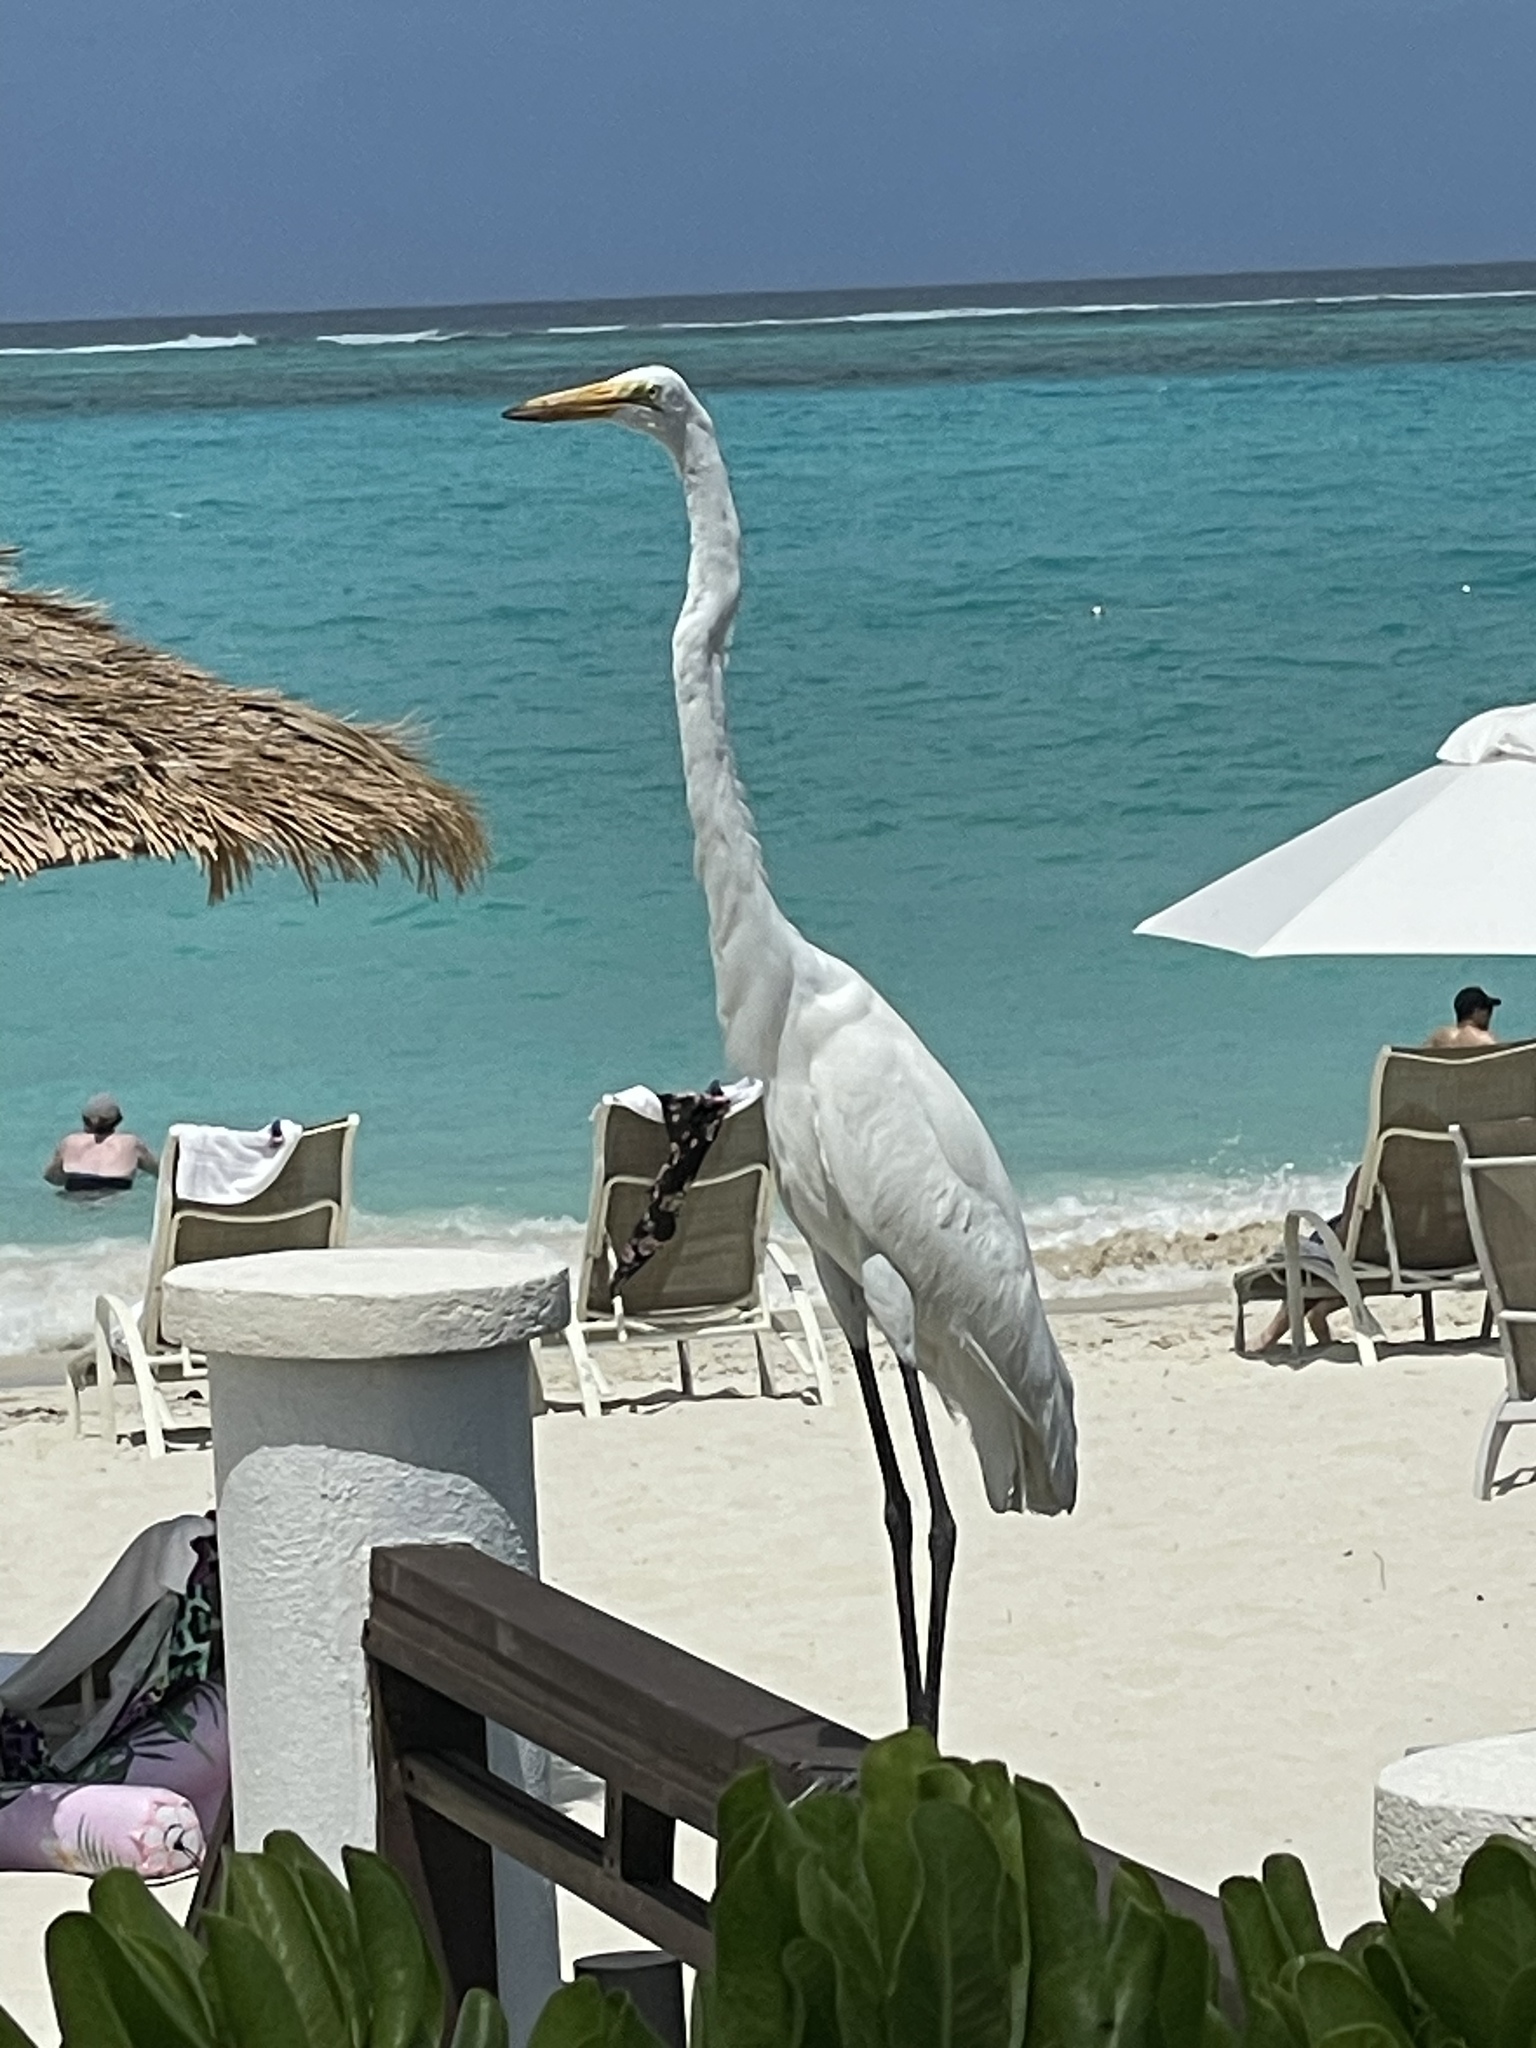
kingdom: Animalia
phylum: Chordata
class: Aves
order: Pelecaniformes
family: Ardeidae
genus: Ardea
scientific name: Ardea alba
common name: Great egret
